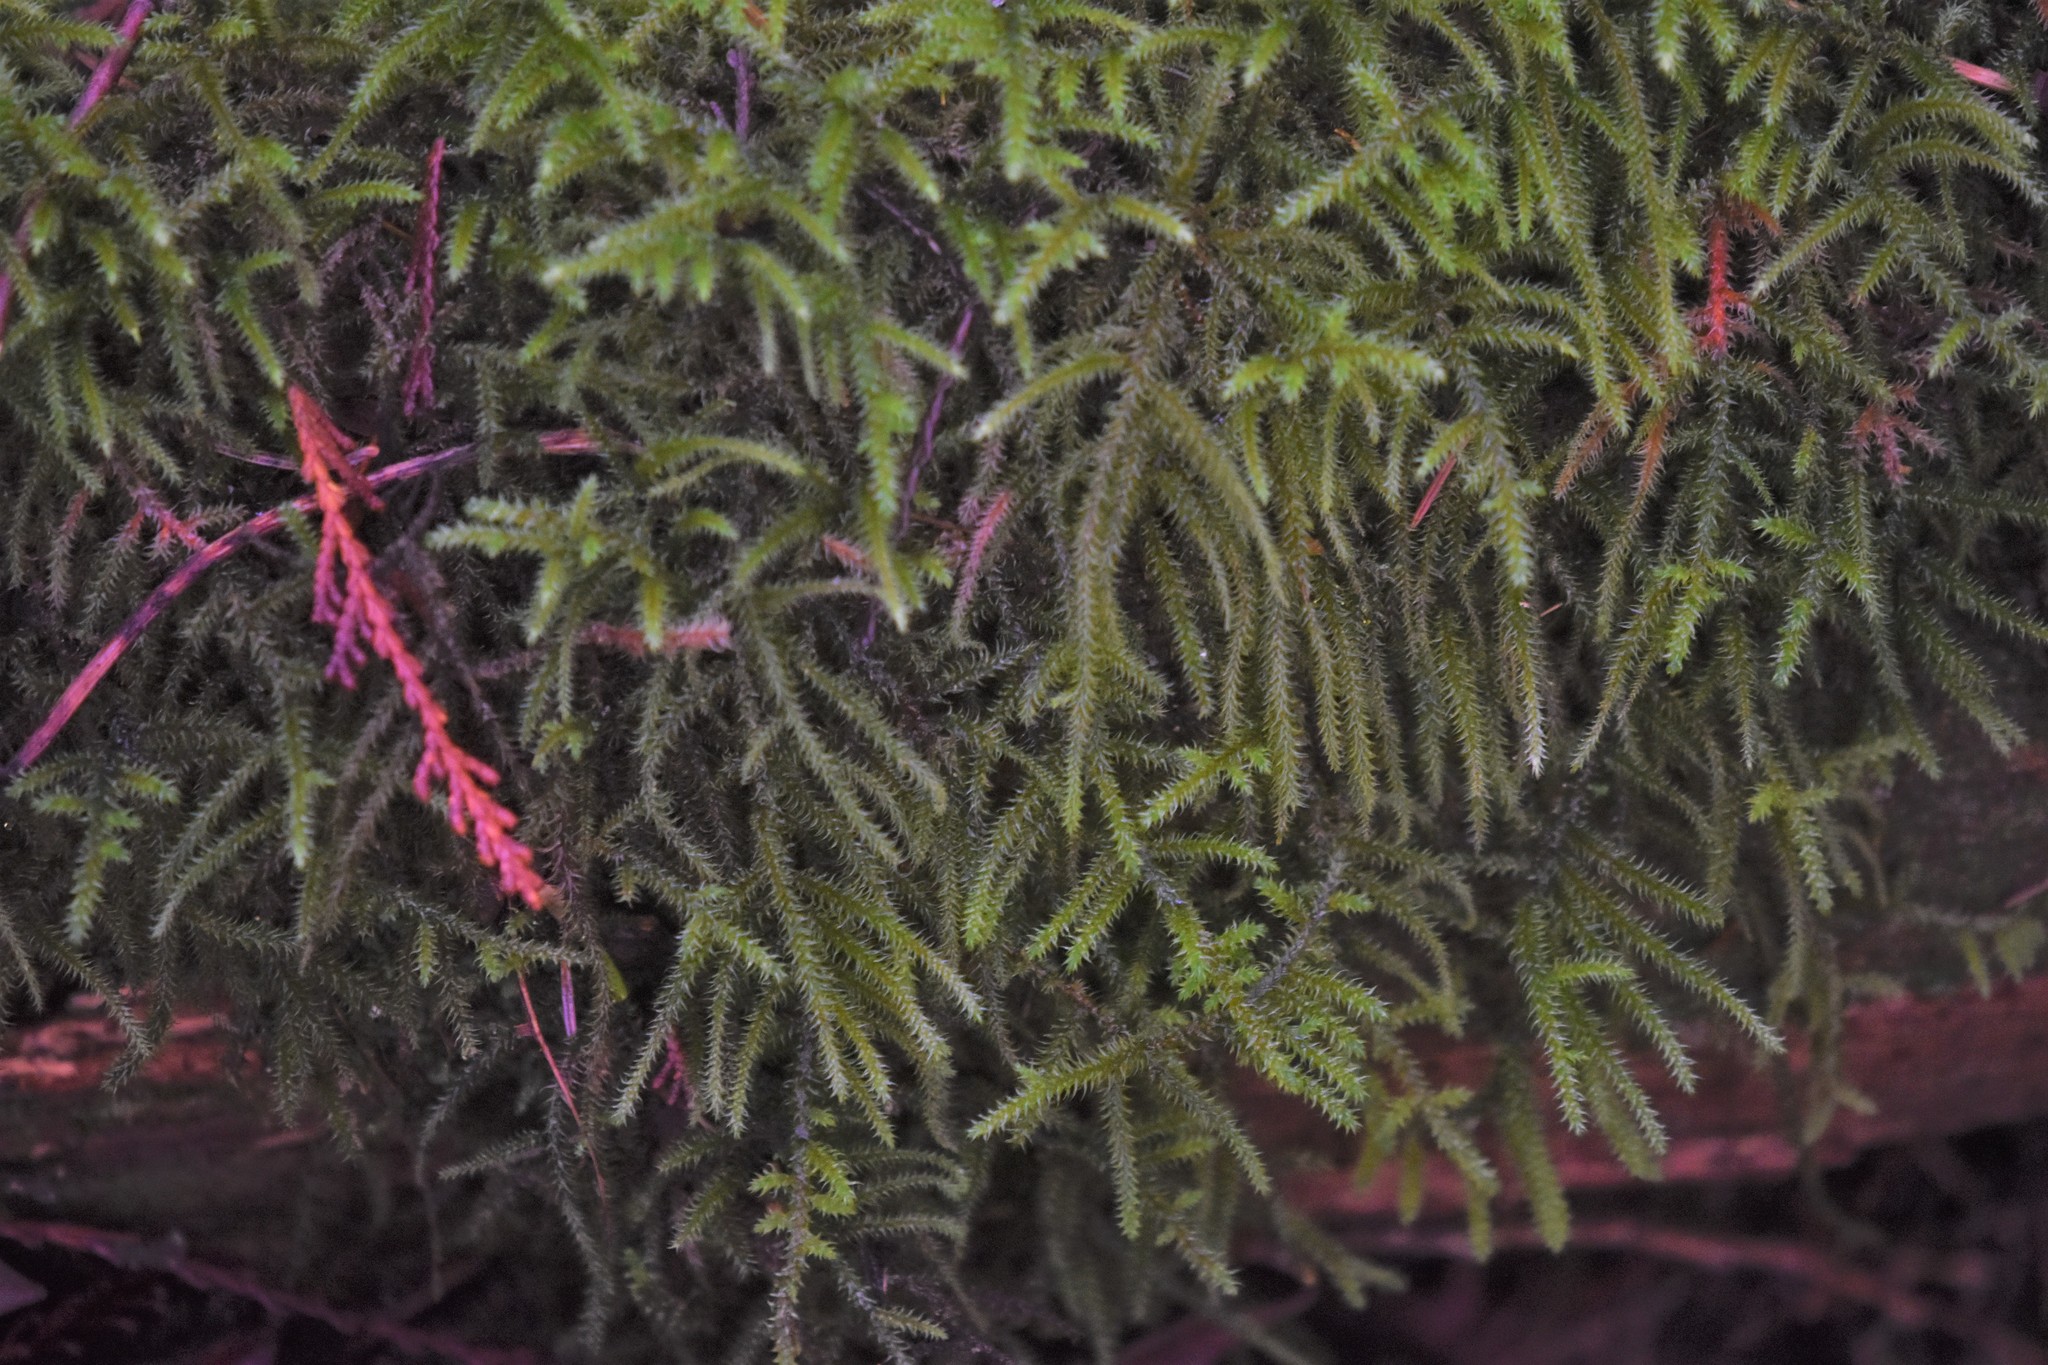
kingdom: Plantae
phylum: Bryophyta
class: Bryopsida
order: Hypnales
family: Hylocomiaceae
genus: Rhytidiadelphus
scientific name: Rhytidiadelphus loreus
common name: Lanky moss
